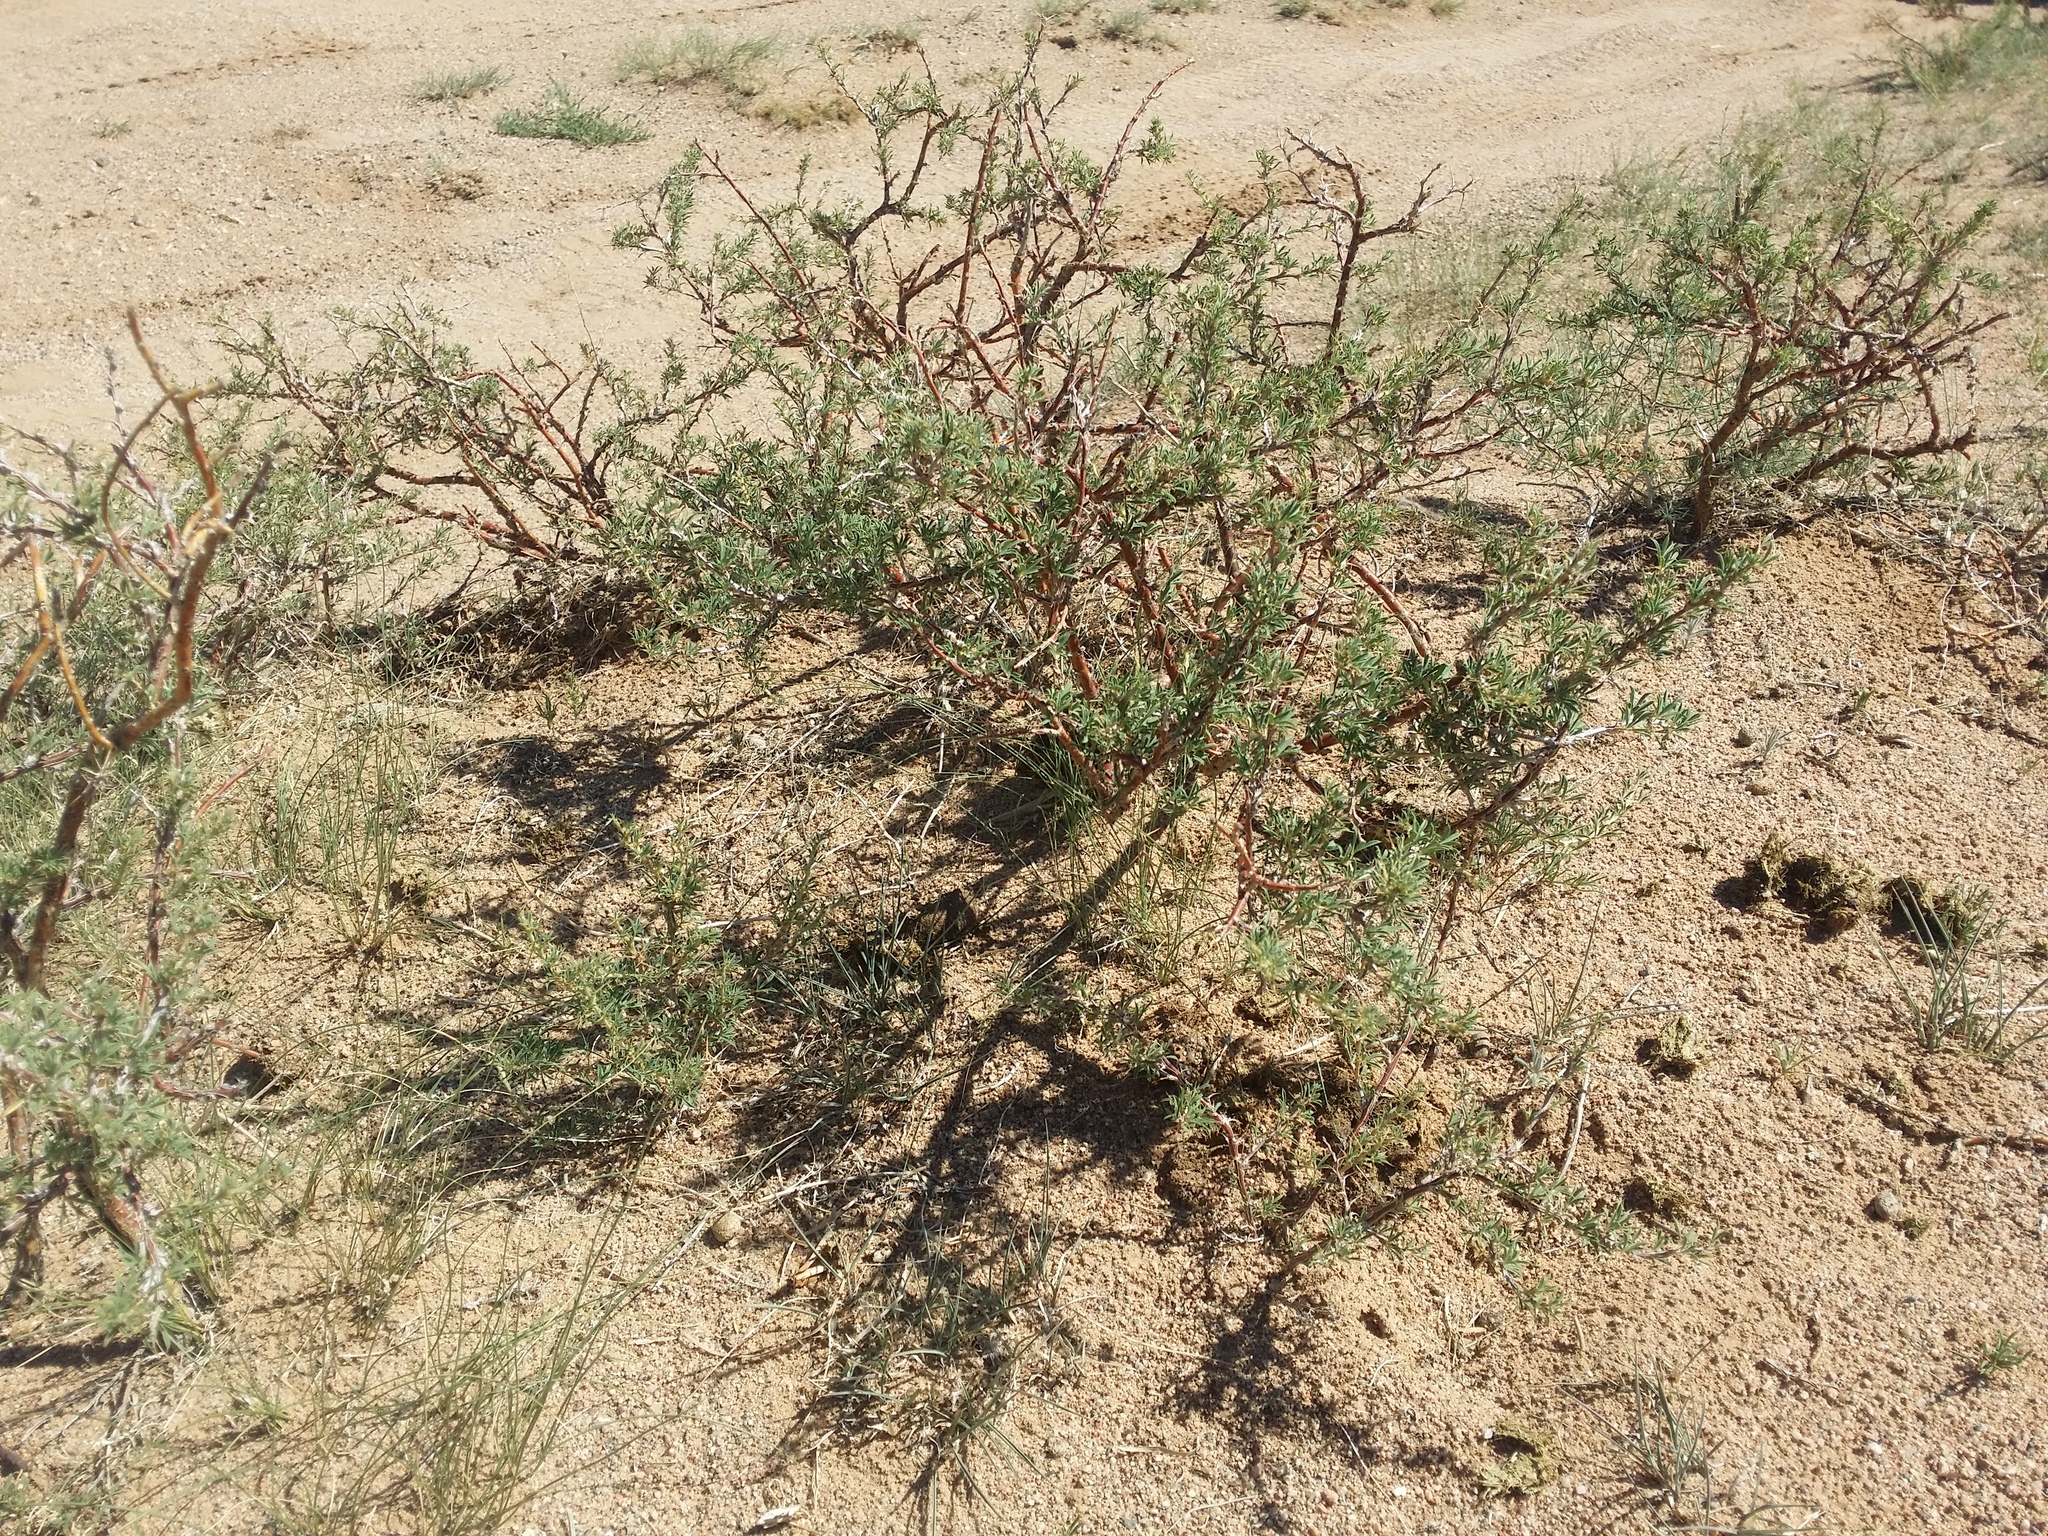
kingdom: Plantae
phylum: Tracheophyta
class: Magnoliopsida
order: Fabales
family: Fabaceae
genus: Caragana
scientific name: Caragana brachypoda
